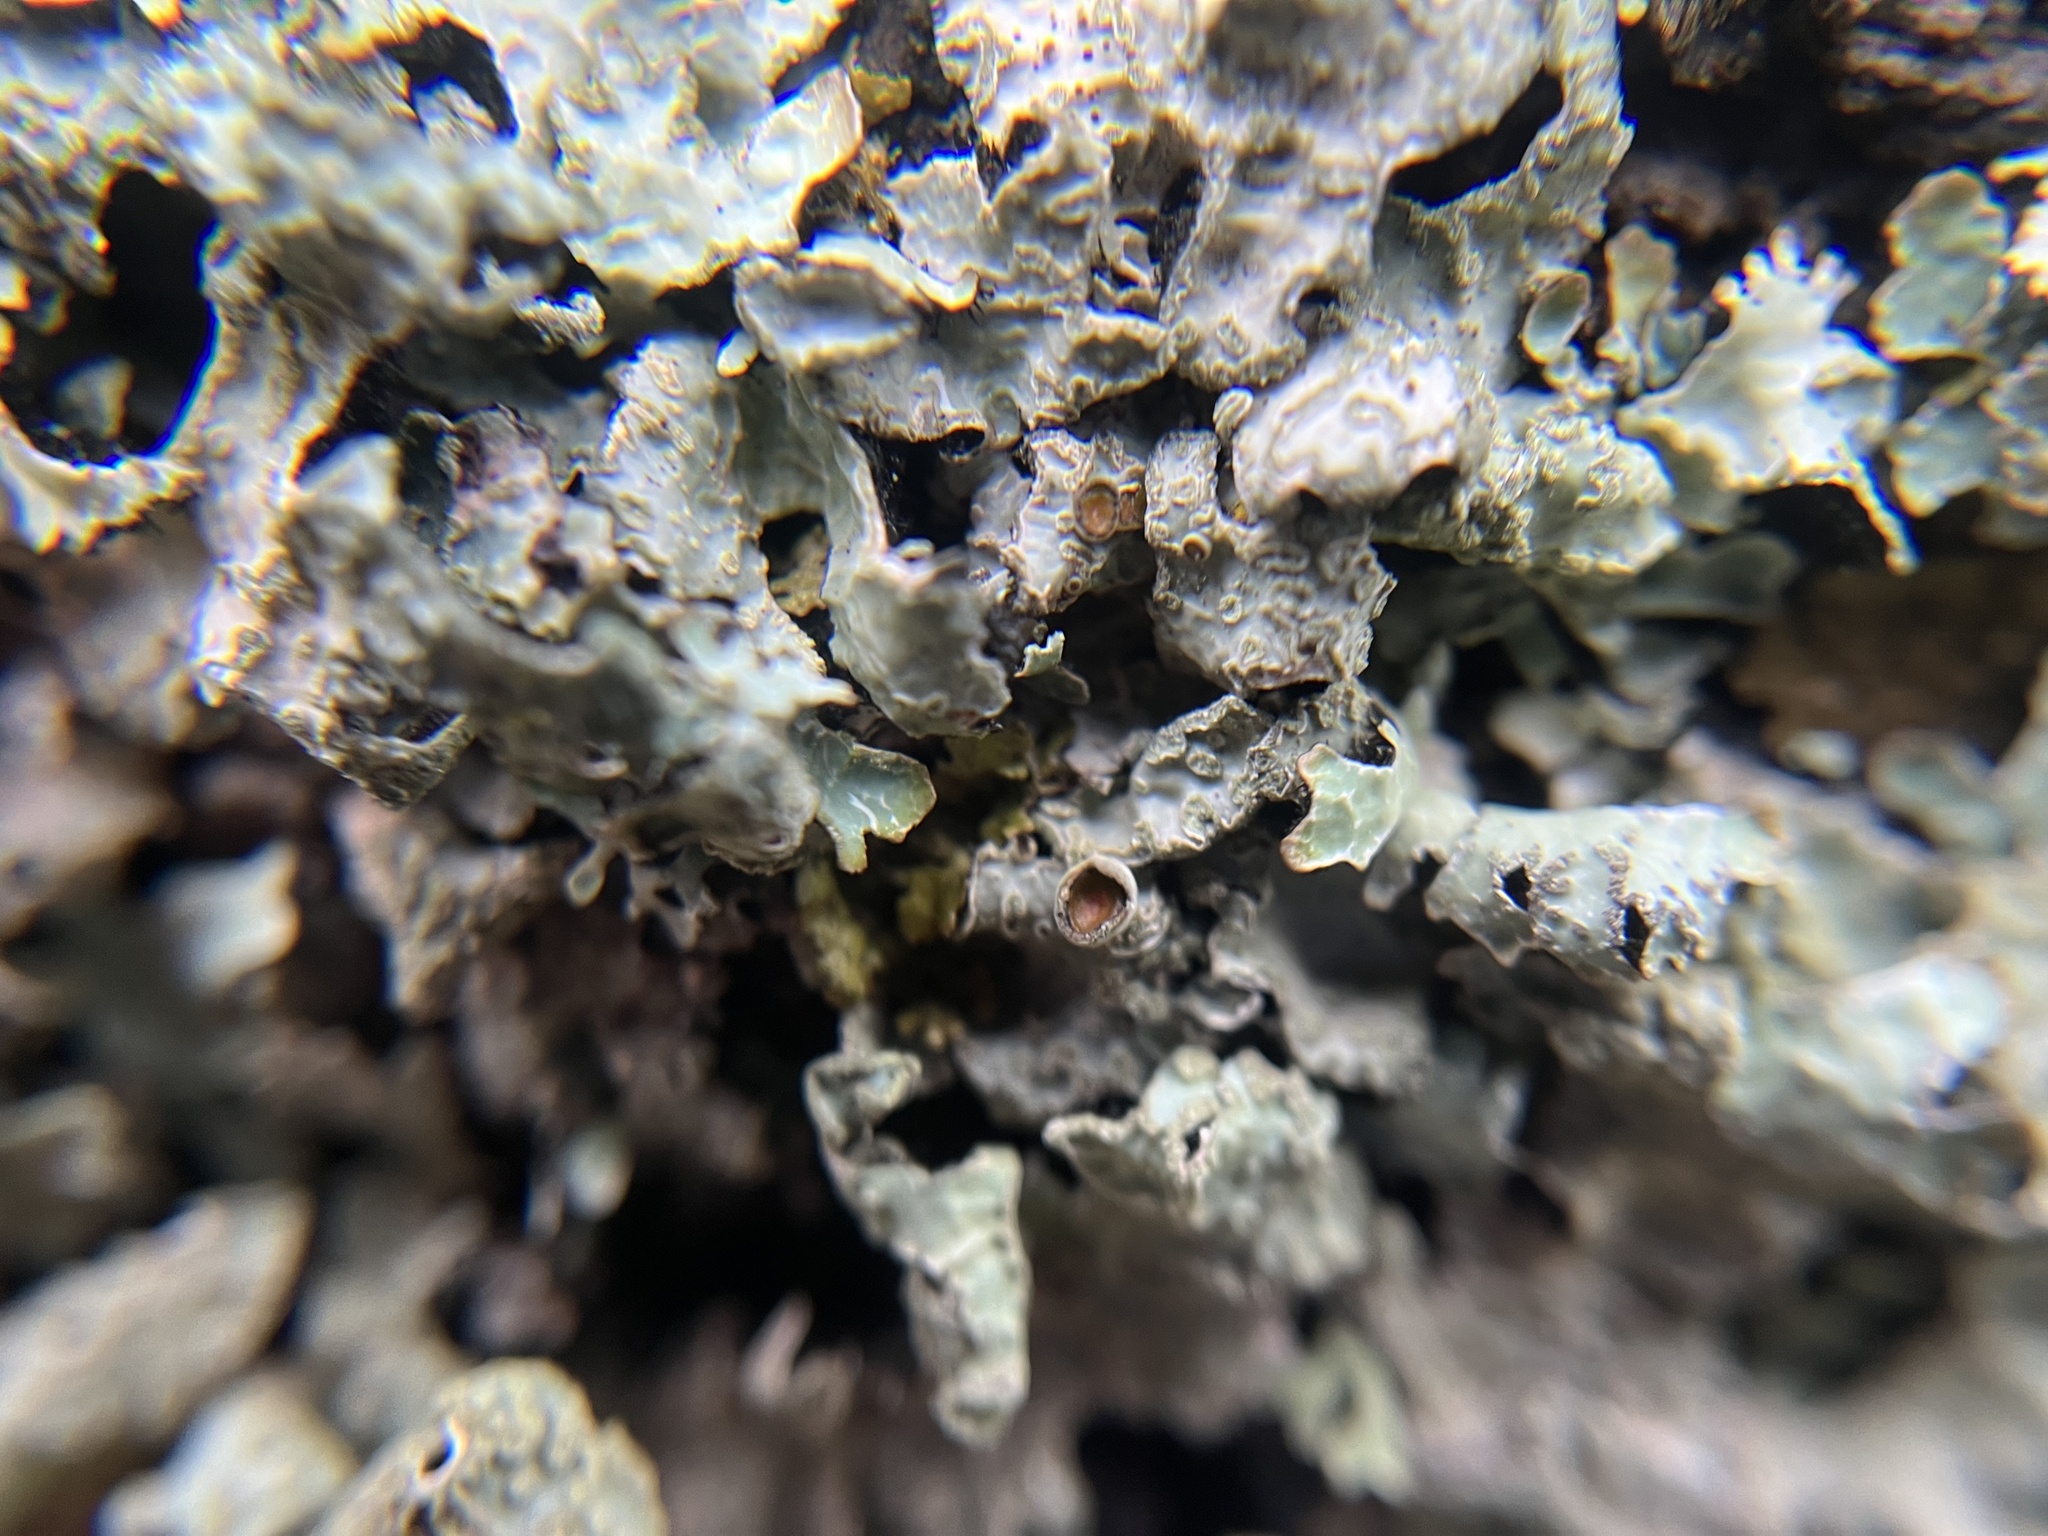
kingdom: Fungi
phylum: Ascomycota
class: Lecanoromycetes
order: Lecanorales
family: Parmeliaceae
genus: Parmelia
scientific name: Parmelia sulcata
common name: Netted shield lichen
